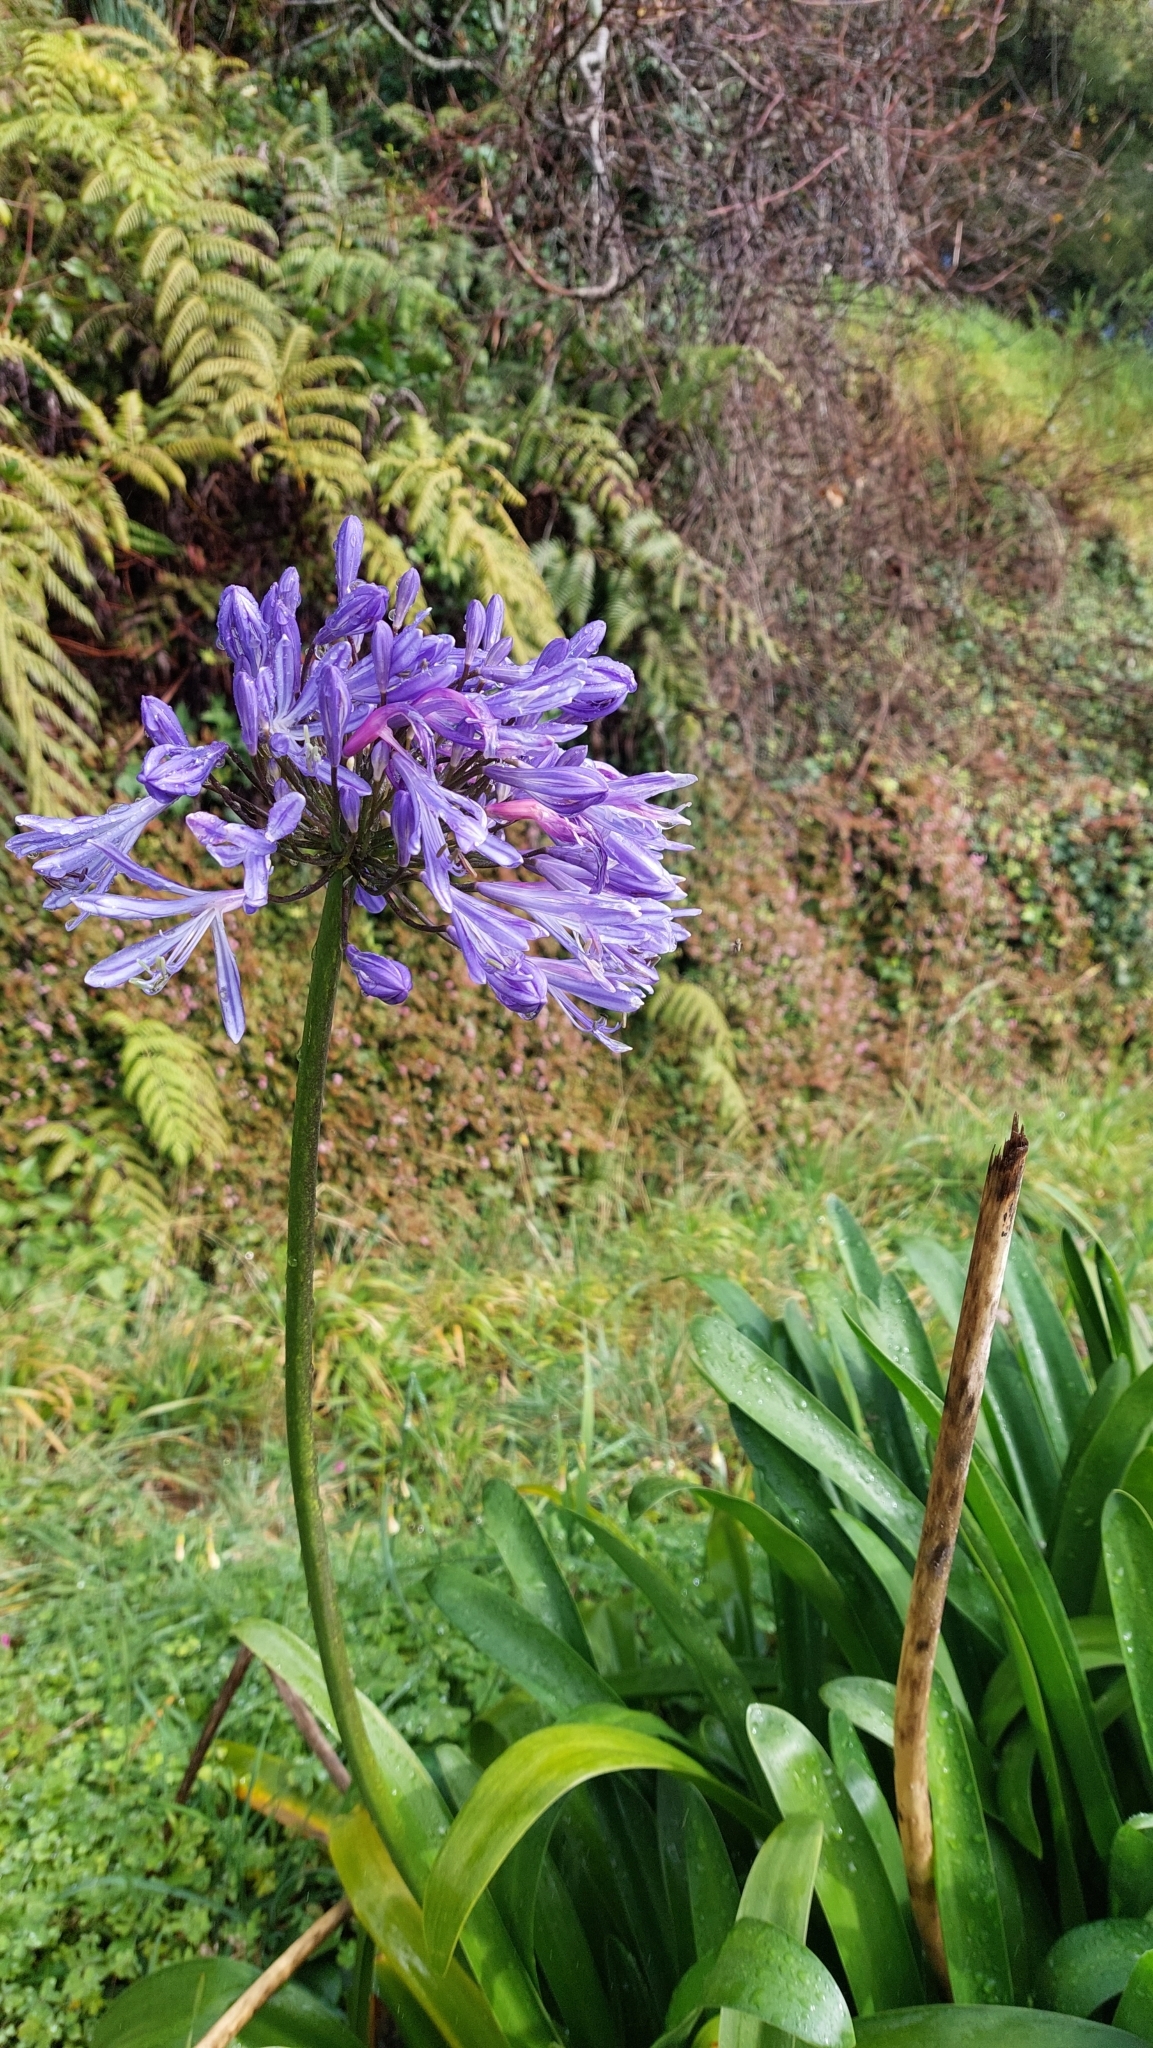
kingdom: Plantae
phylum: Tracheophyta
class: Liliopsida
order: Asparagales
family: Amaryllidaceae
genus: Agapanthus
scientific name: Agapanthus praecox
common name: African-lily
